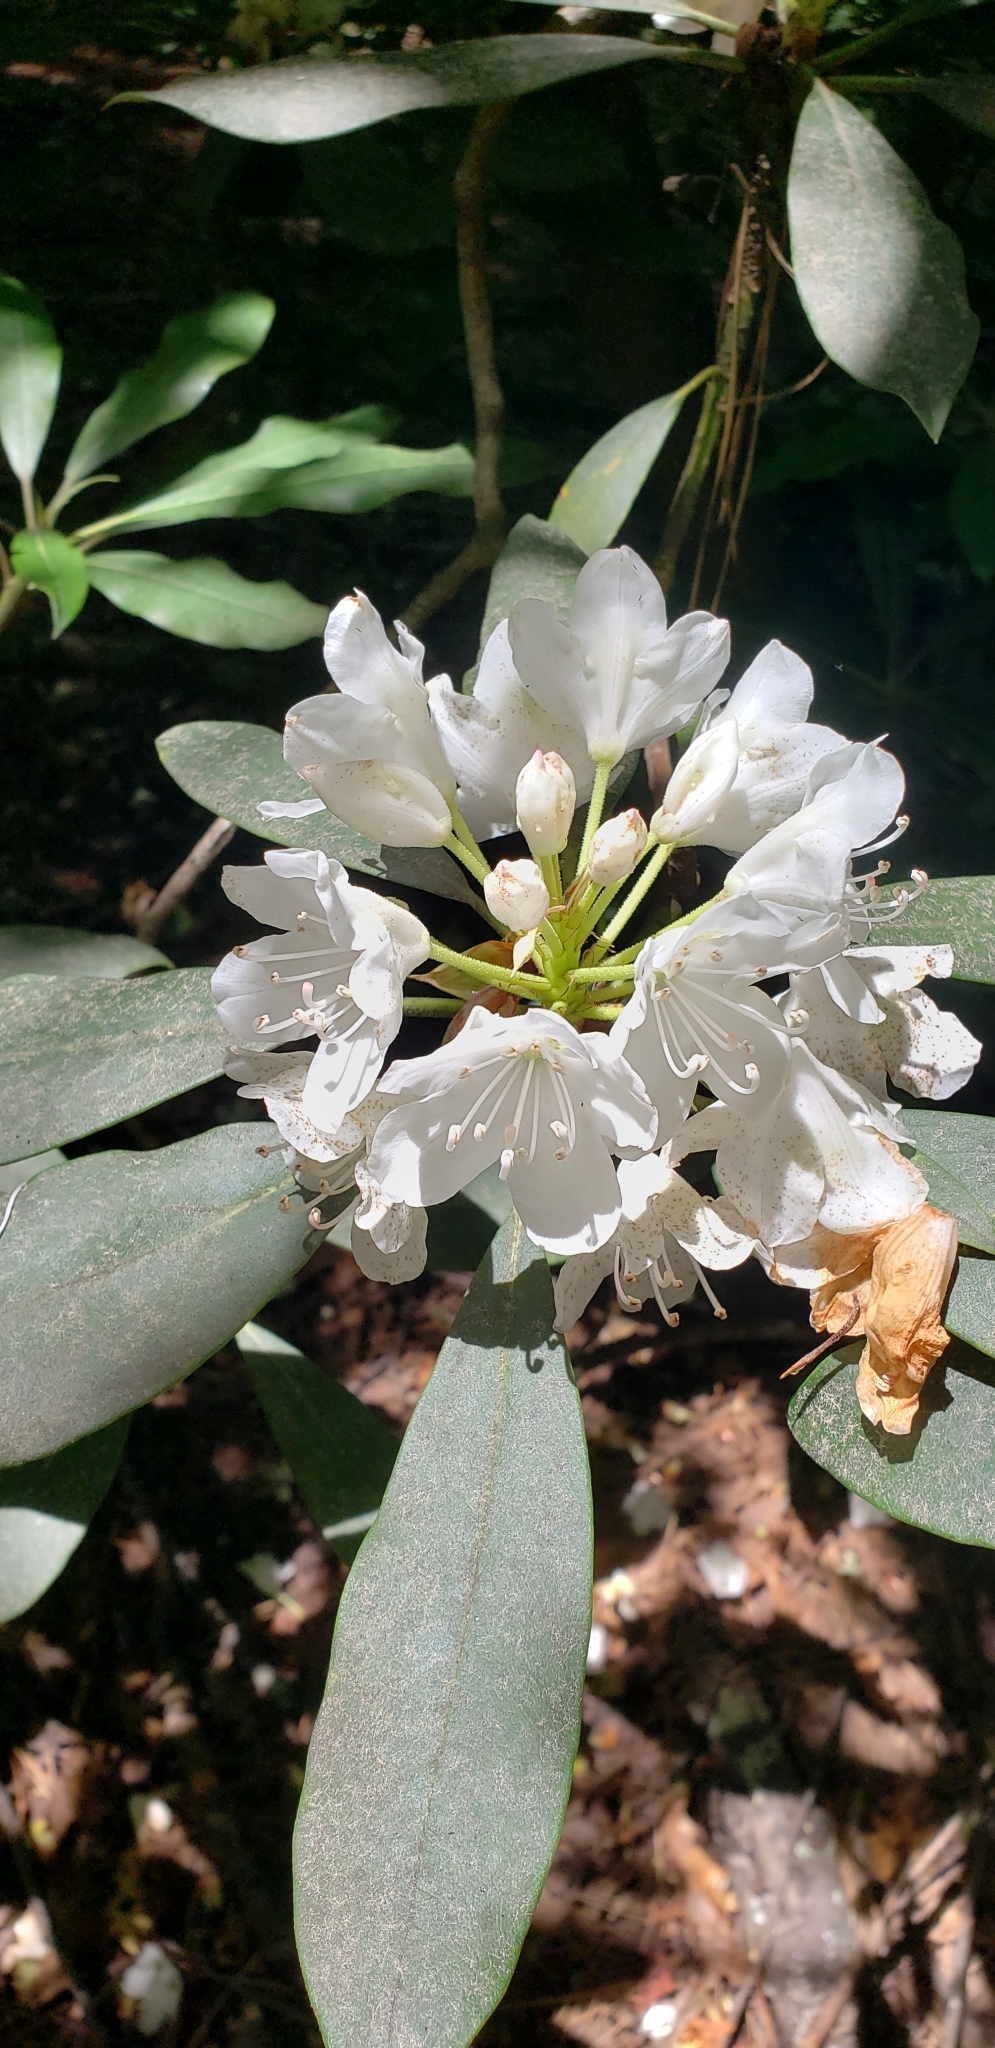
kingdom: Plantae
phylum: Tracheophyta
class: Magnoliopsida
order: Ericales
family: Ericaceae
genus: Rhododendron
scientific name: Rhododendron maximum
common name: Great rhododendron
